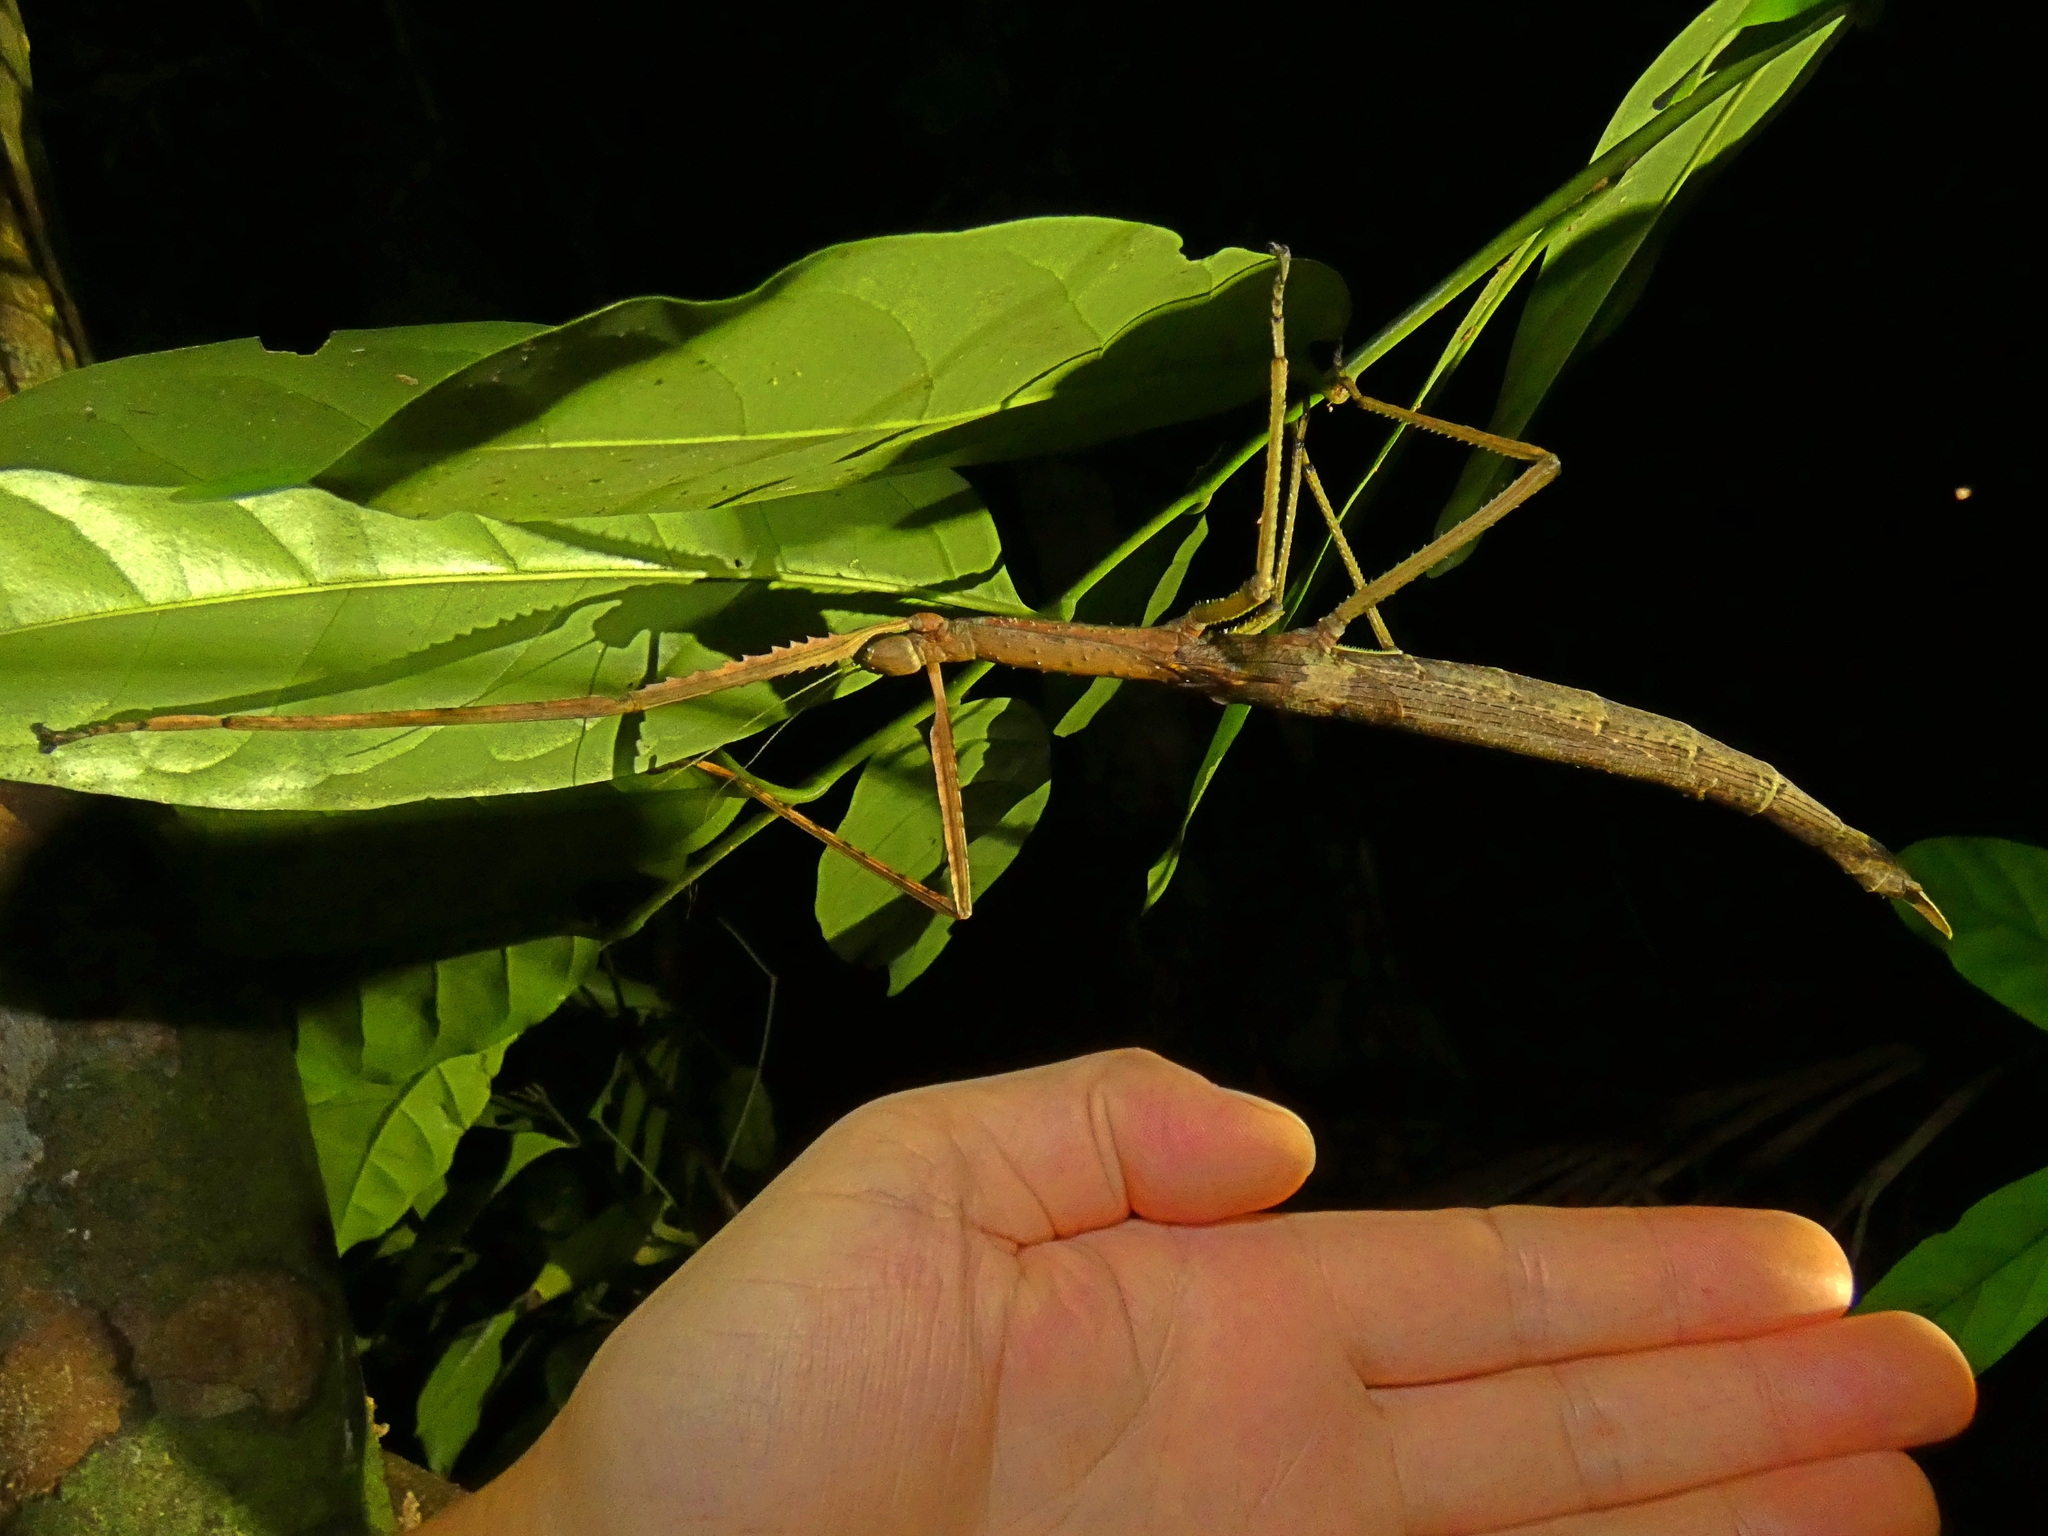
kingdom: Animalia
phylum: Arthropoda
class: Insecta
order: Phasmida
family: Phasmatidae
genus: Acrophylla
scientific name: Acrophylla wuelfingi
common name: Wülfing's stick insect
